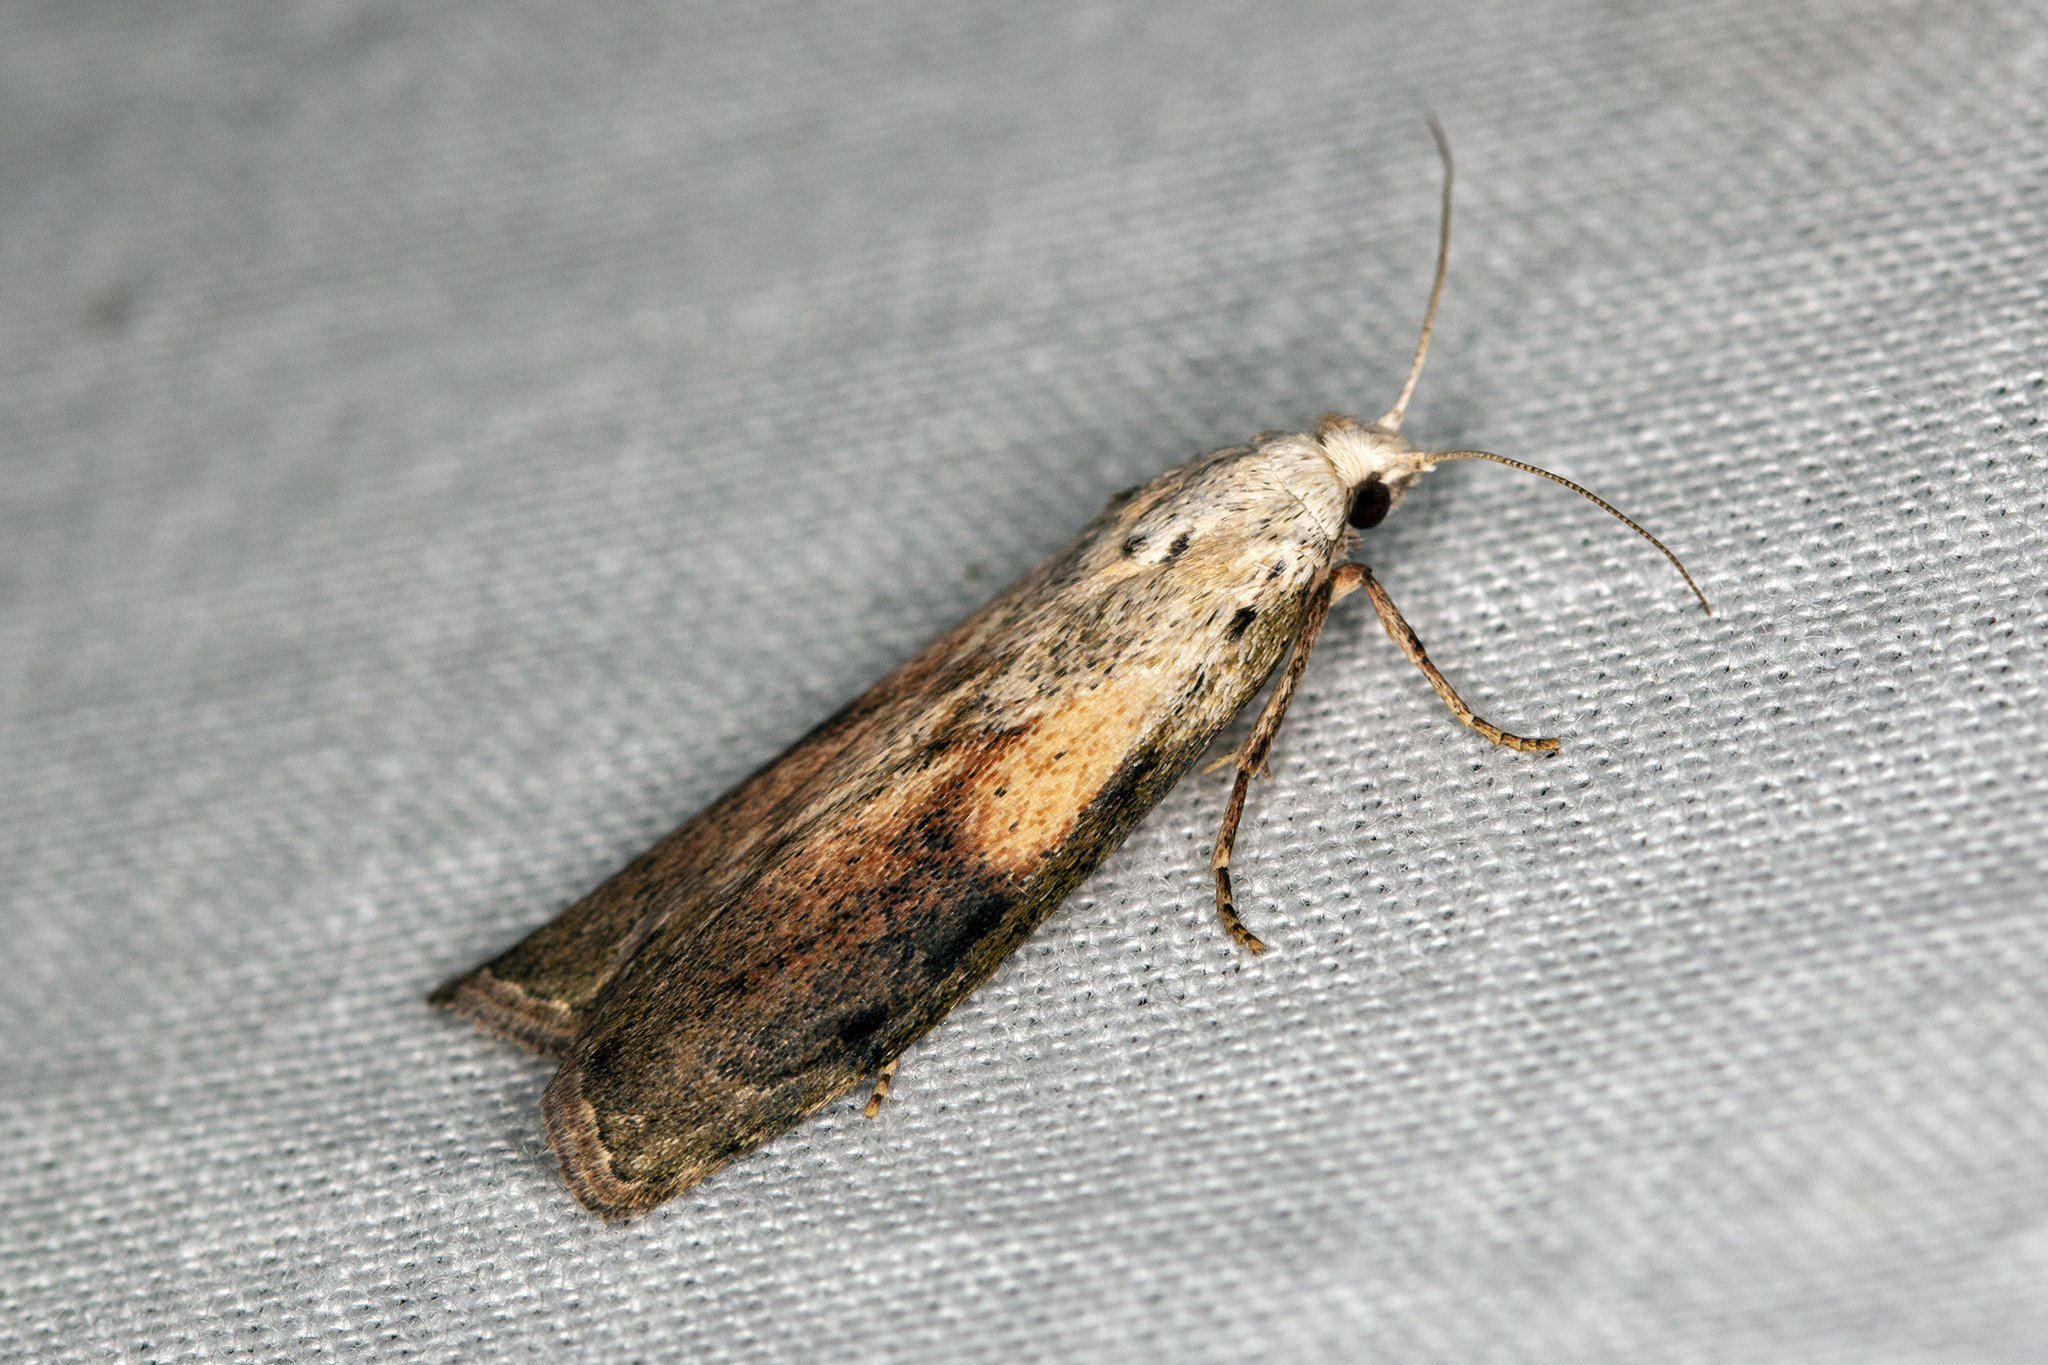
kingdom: Animalia
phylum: Arthropoda
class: Insecta
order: Lepidoptera
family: Pyralidae
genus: Aphomia
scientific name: Aphomia sociella
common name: Bee moth
